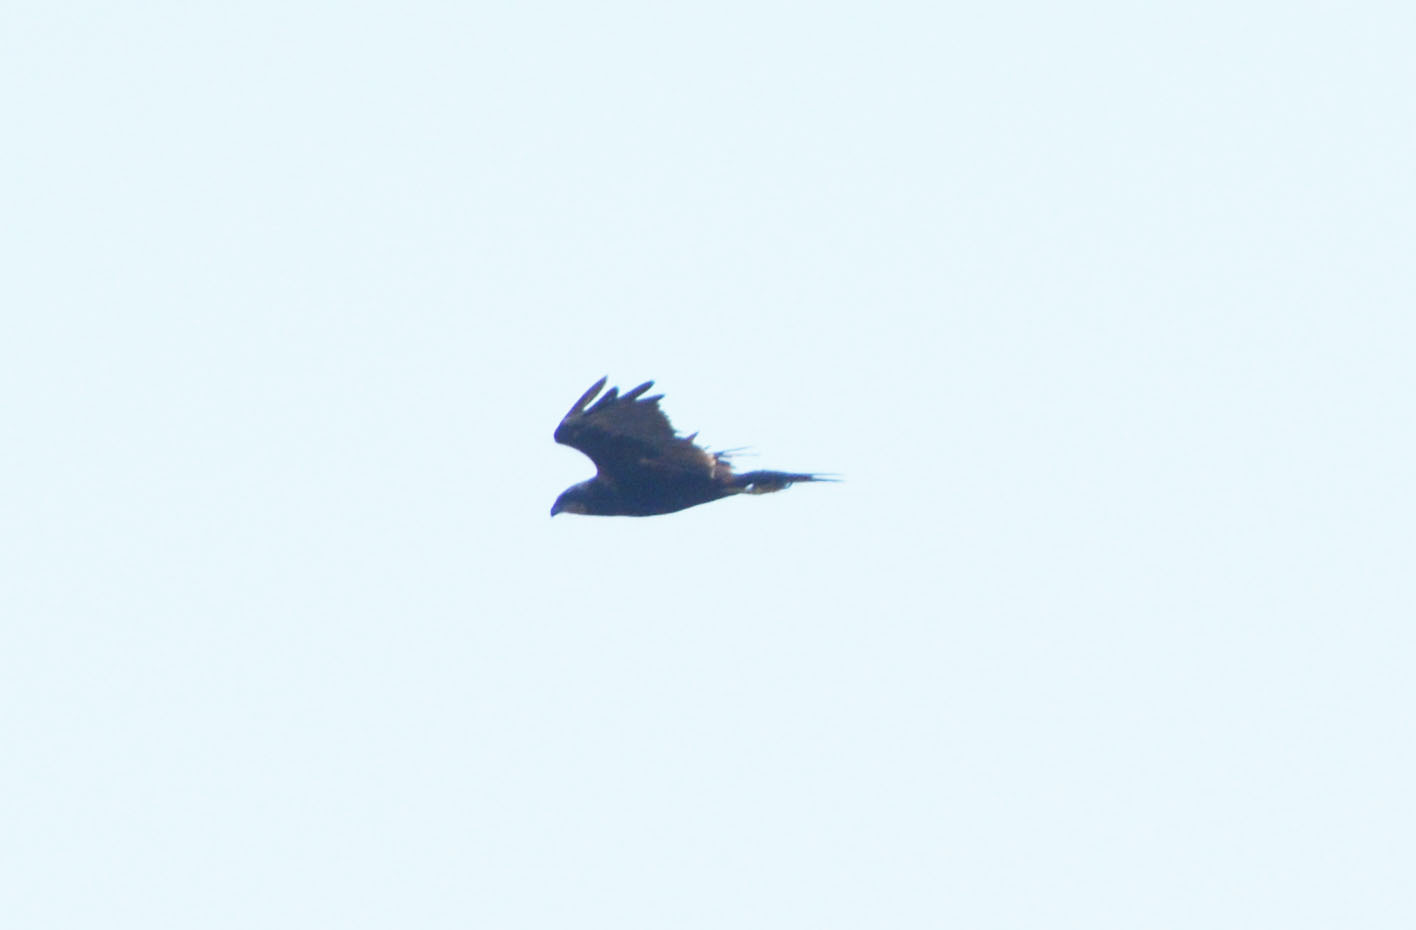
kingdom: Animalia
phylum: Chordata
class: Aves
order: Accipitriformes
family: Accipitridae
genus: Circus
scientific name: Circus aeruginosus
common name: Western marsh harrier
